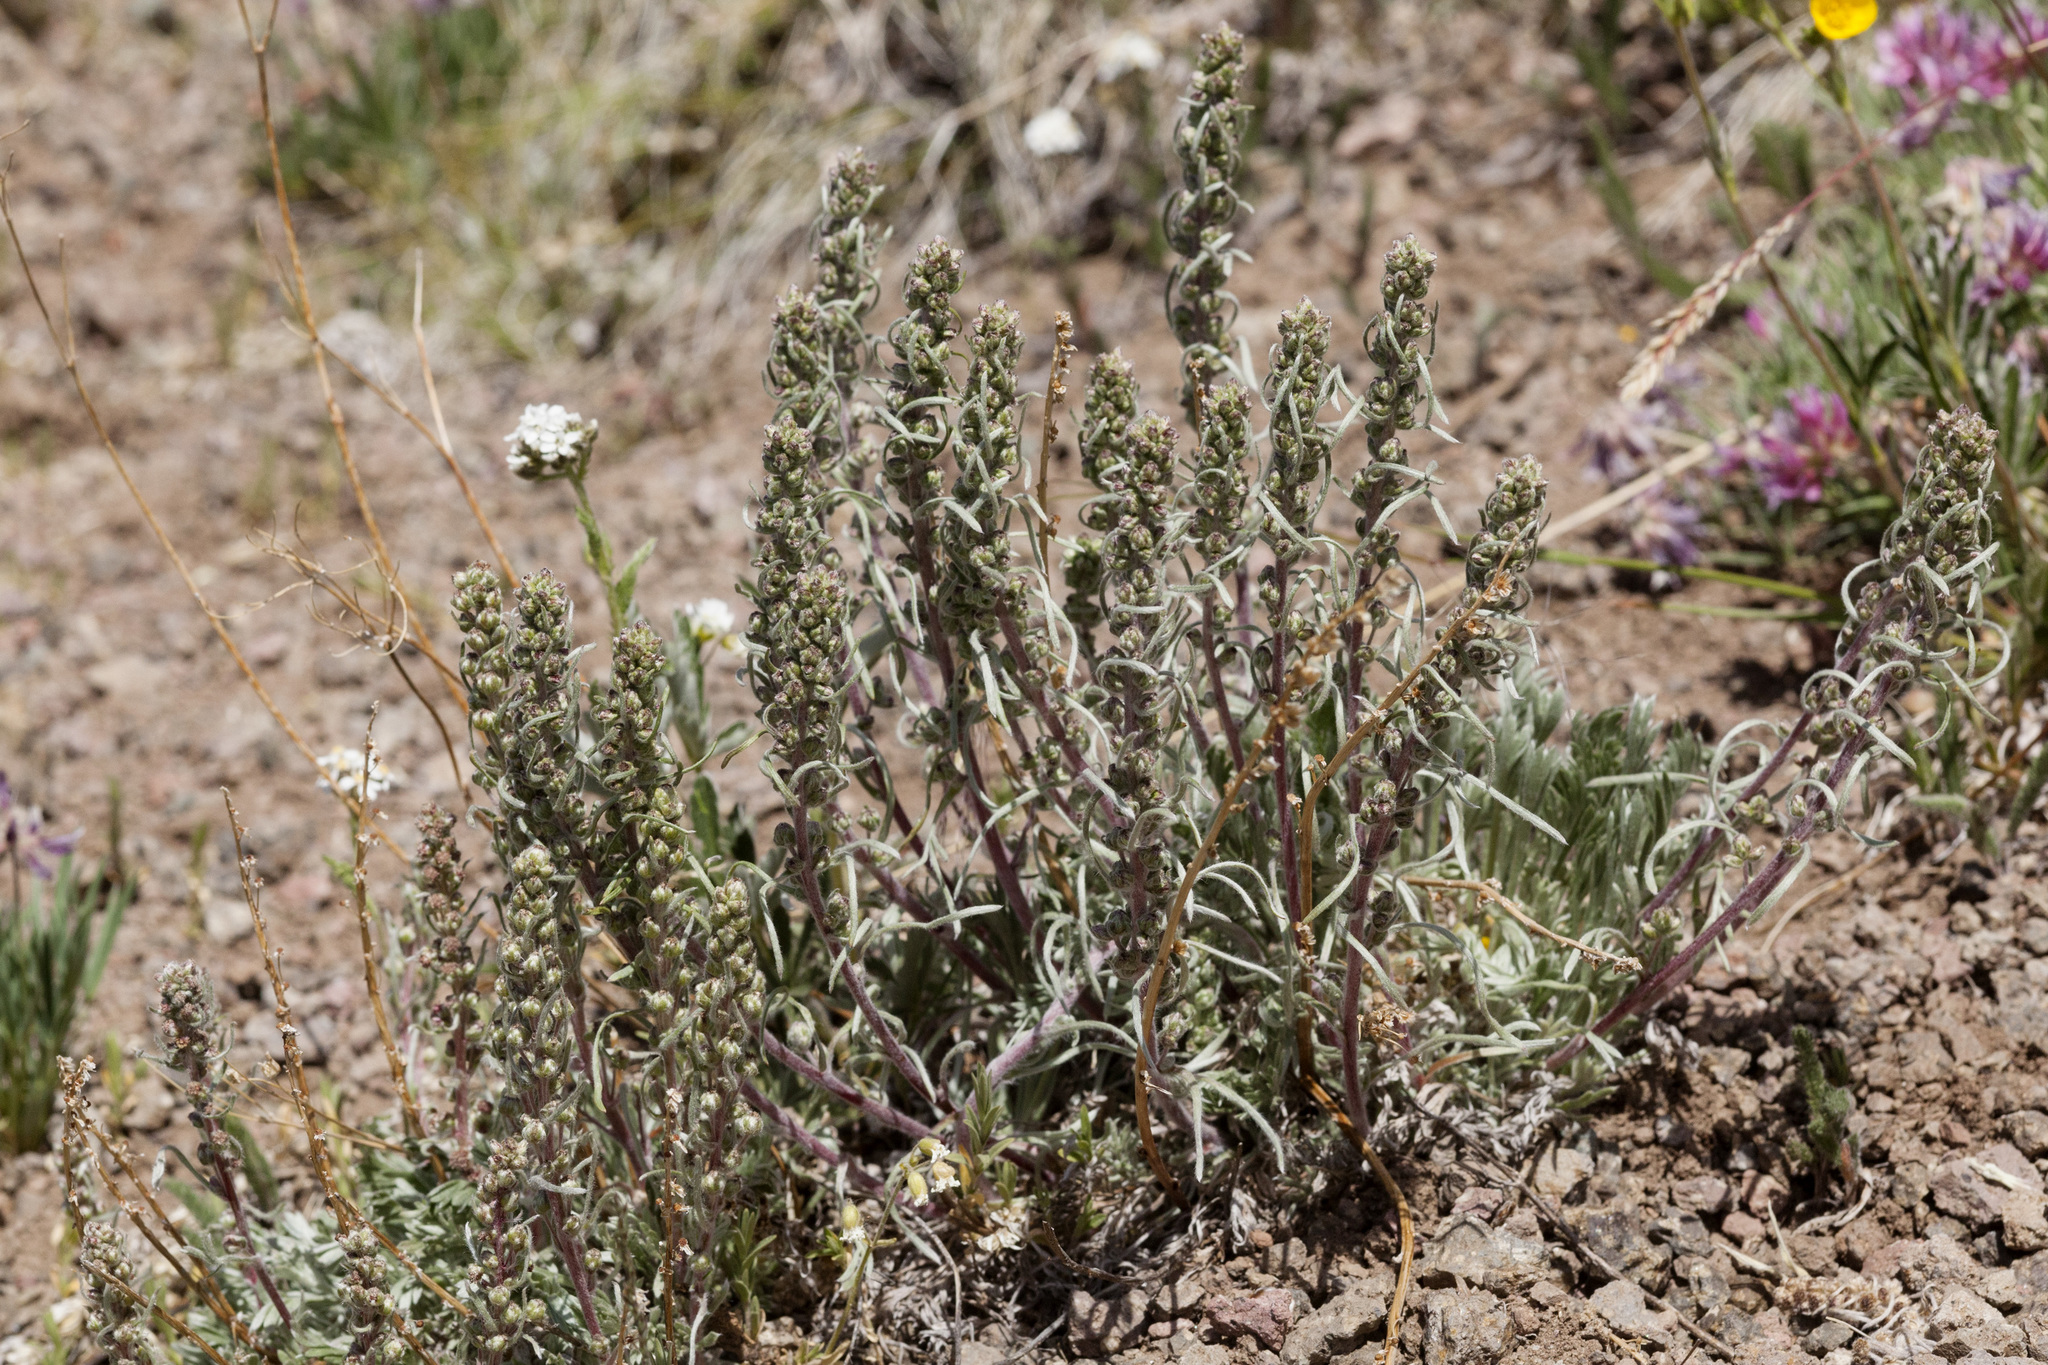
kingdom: Plantae
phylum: Tracheophyta
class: Magnoliopsida
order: Asterales
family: Asteraceae
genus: Artemisia
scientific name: Artemisia borealis
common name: Boreal sage
